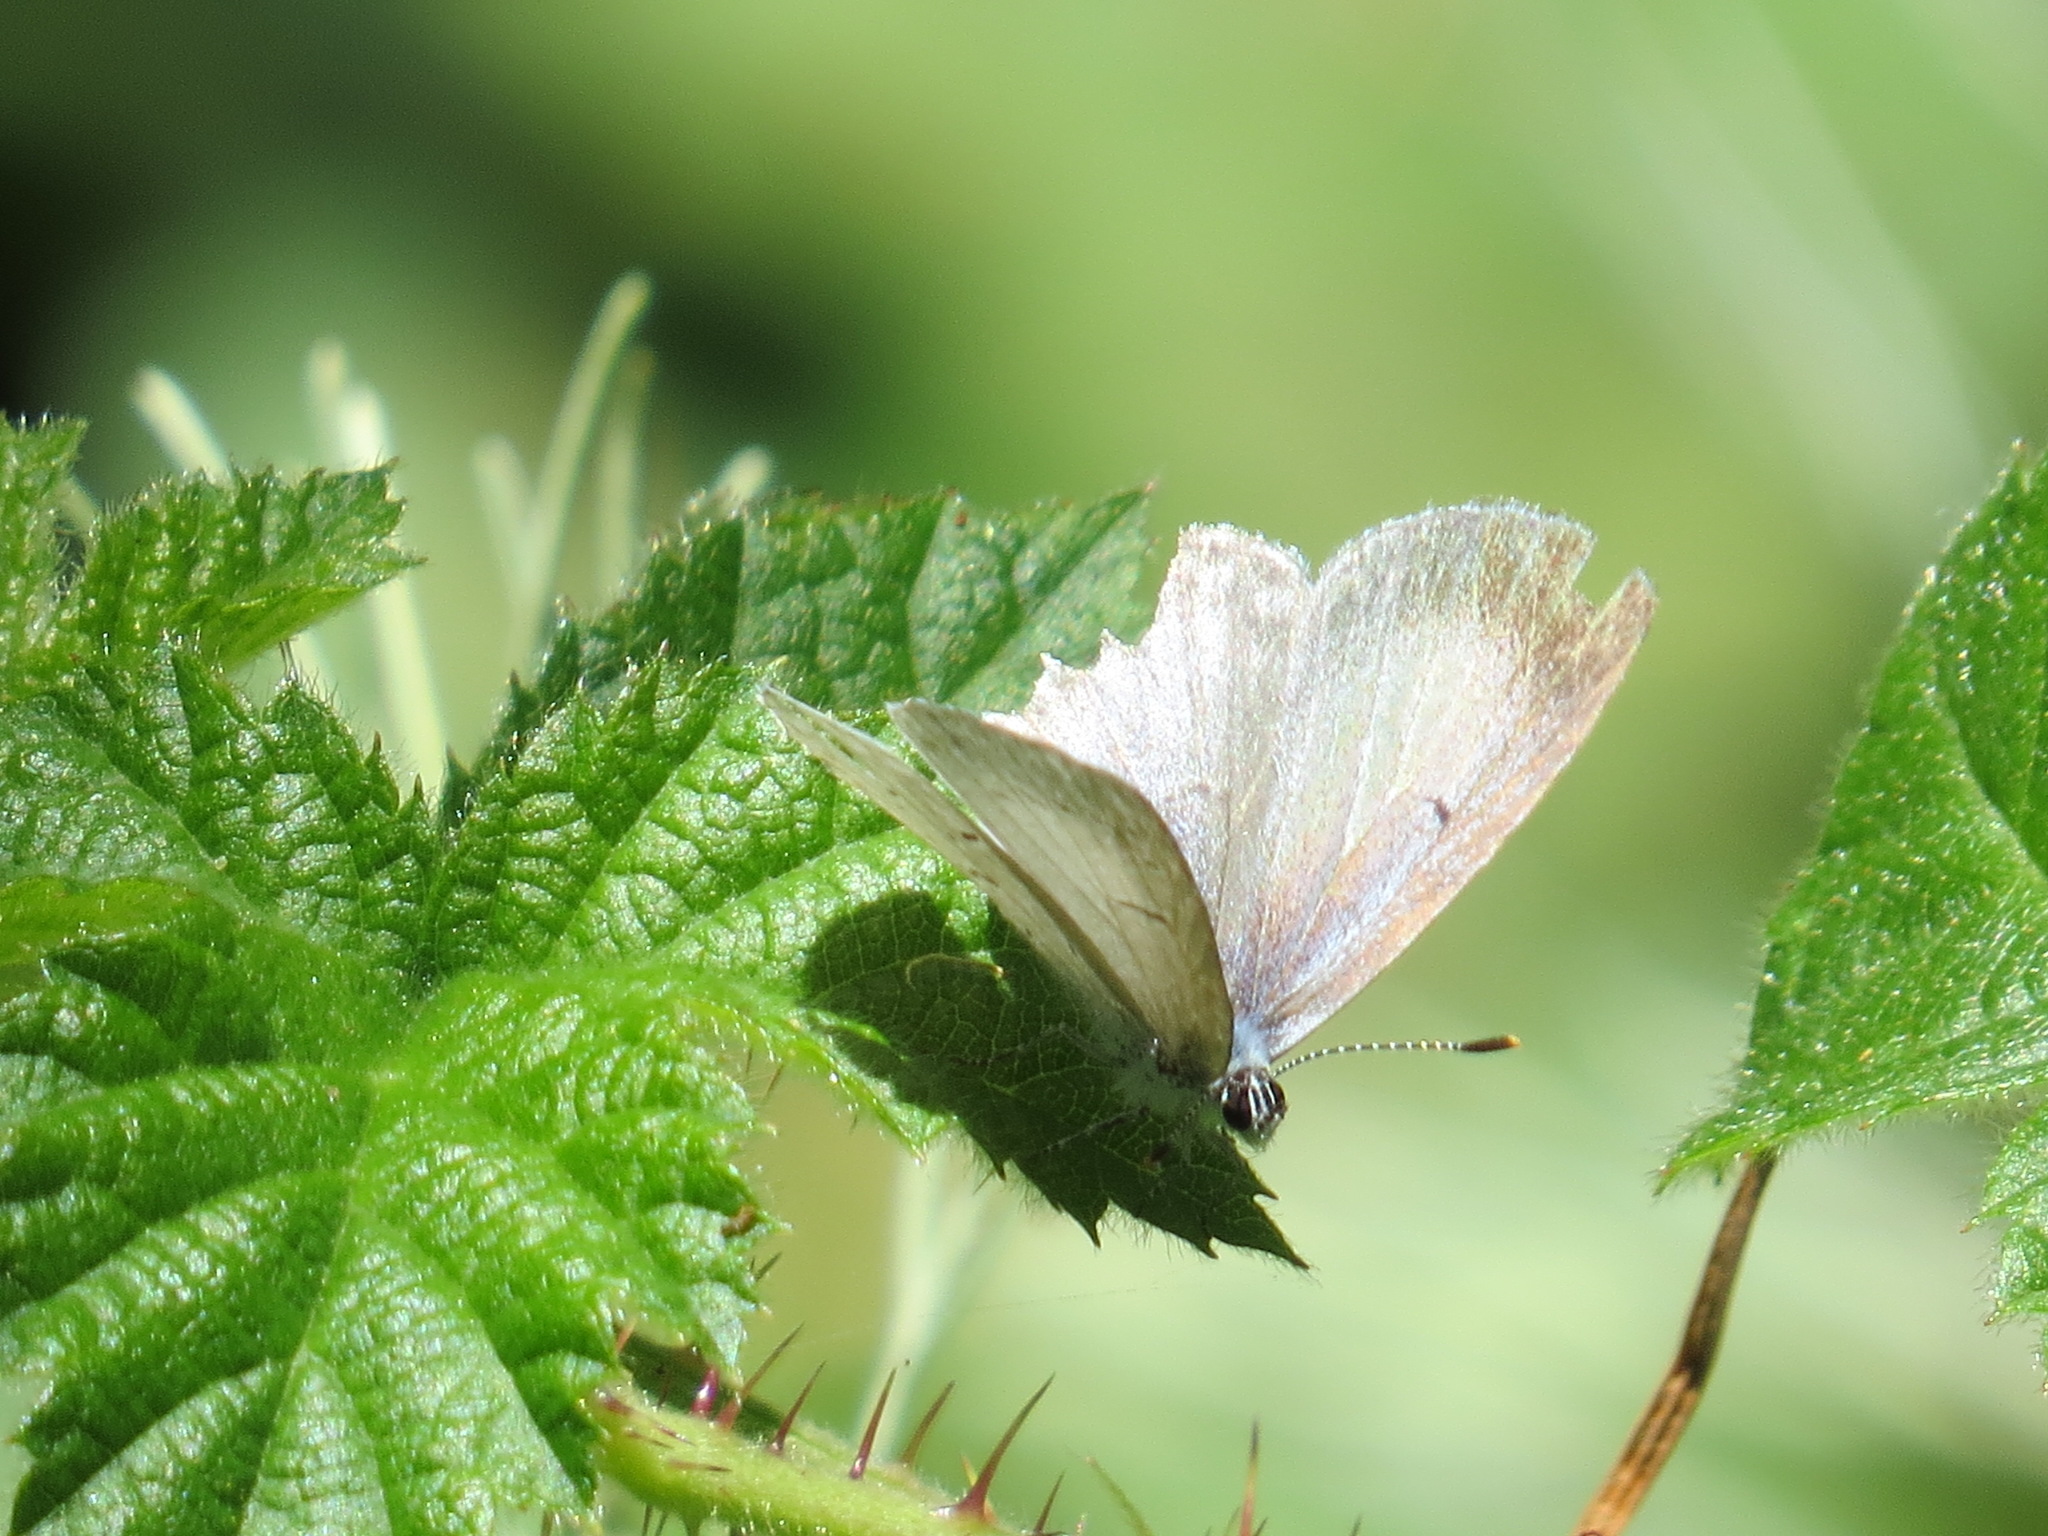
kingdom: Animalia
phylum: Arthropoda
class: Insecta
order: Lepidoptera
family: Lycaenidae
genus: Celastrina
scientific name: Celastrina ladon
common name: Spring azure
